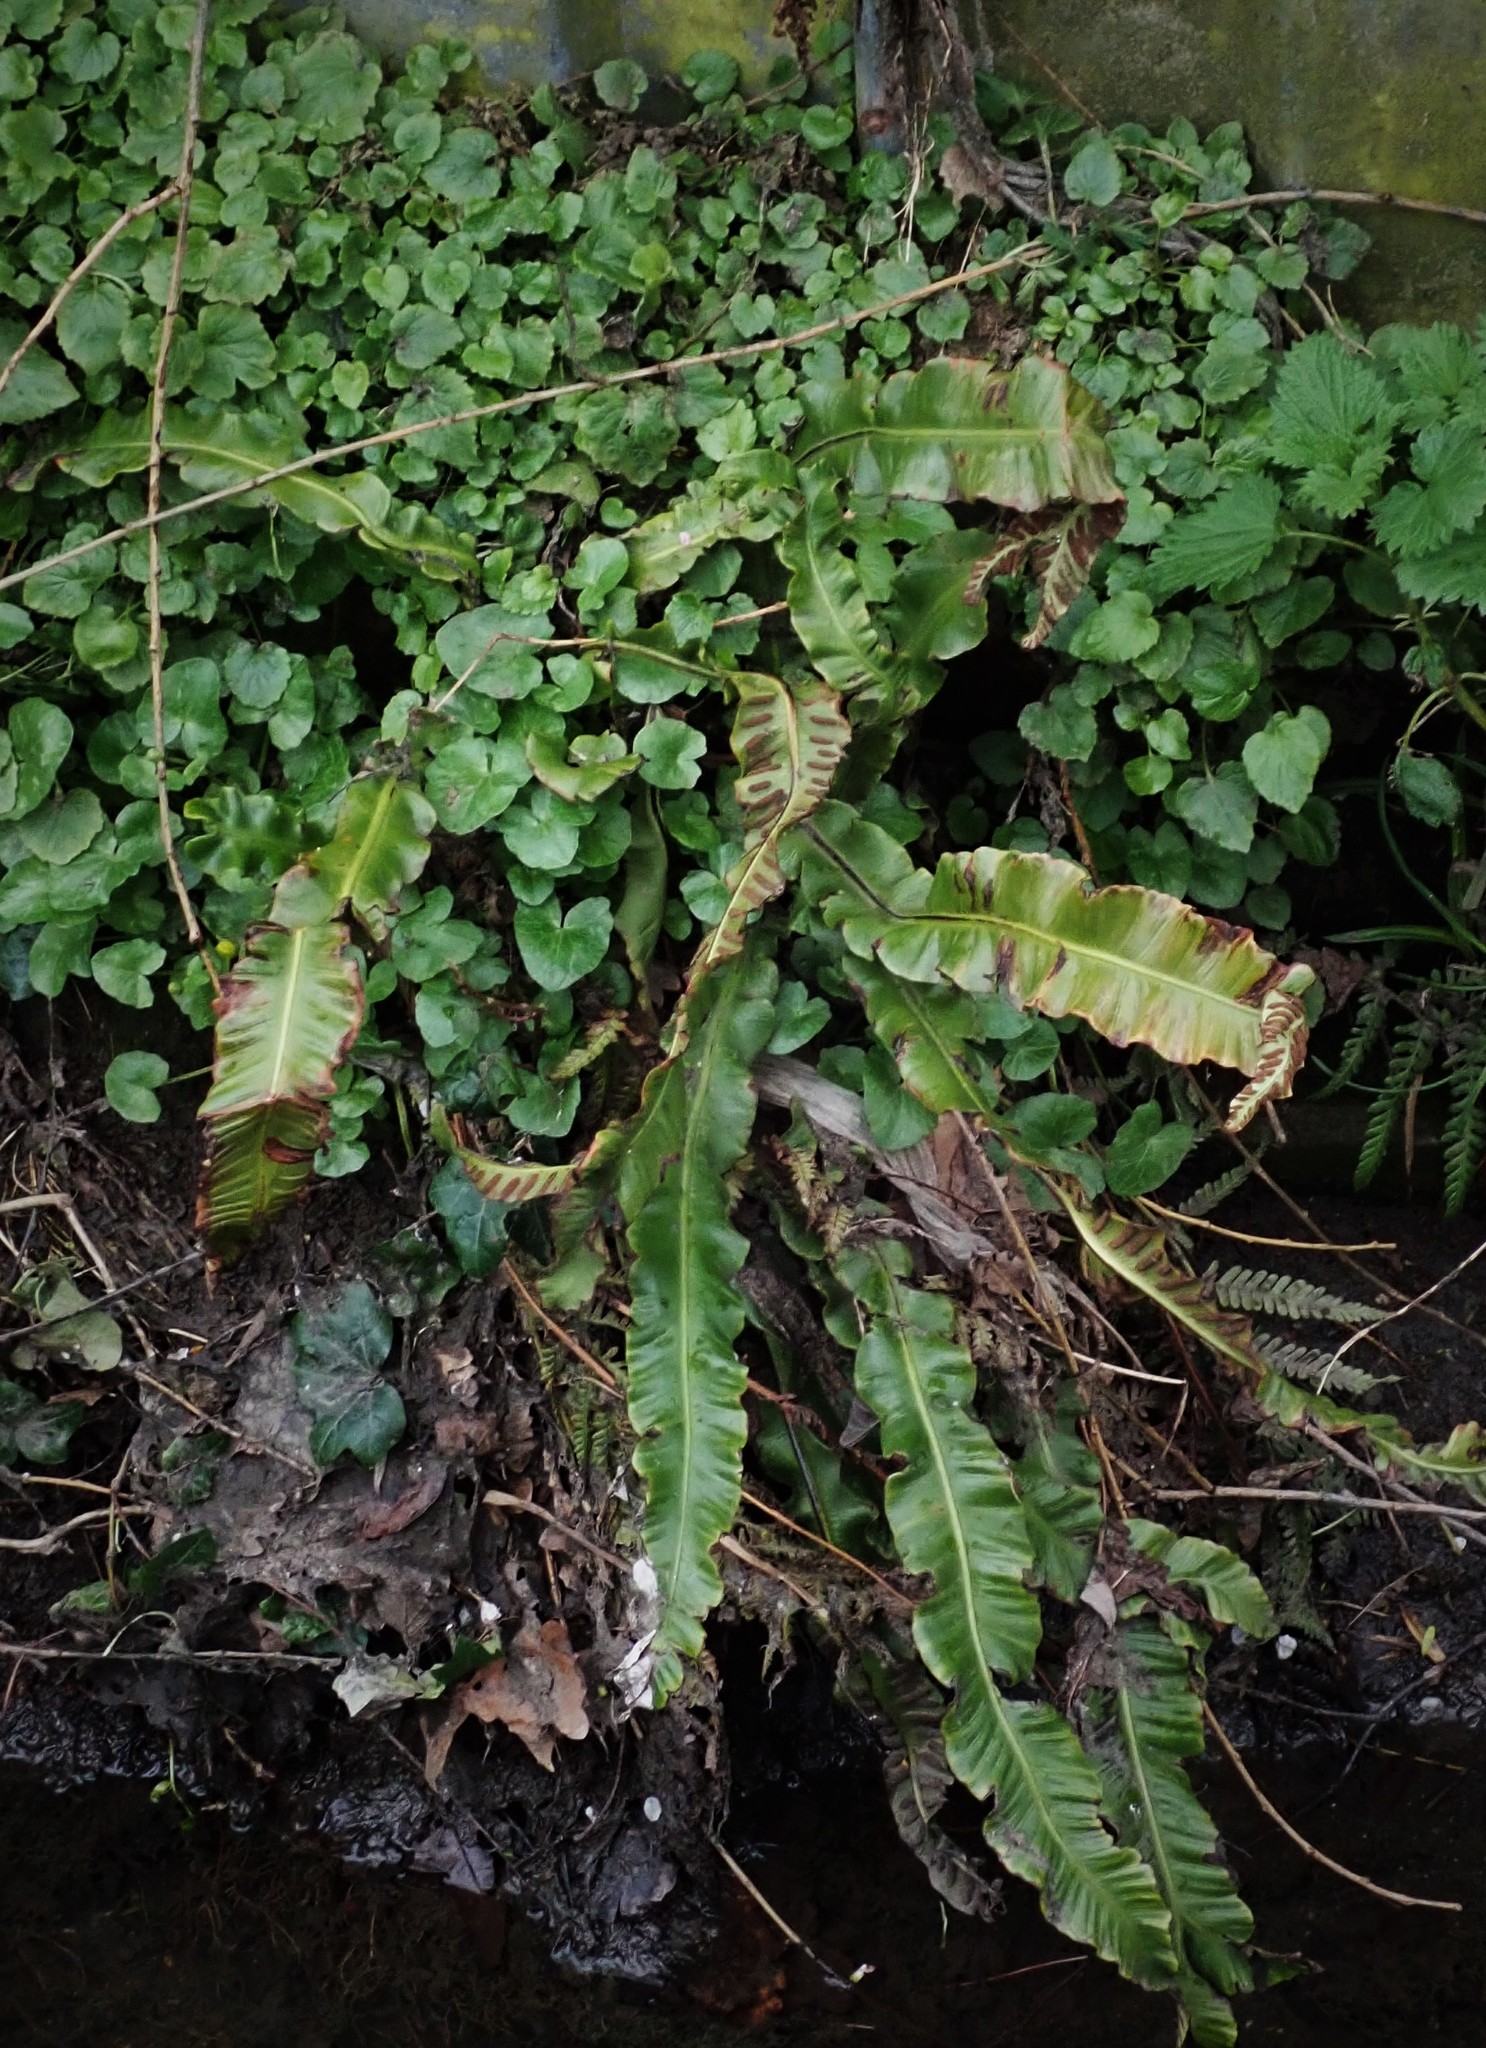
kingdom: Plantae
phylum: Tracheophyta
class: Polypodiopsida
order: Polypodiales
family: Aspleniaceae
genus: Asplenium
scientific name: Asplenium scolopendrium
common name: Hart's-tongue fern
